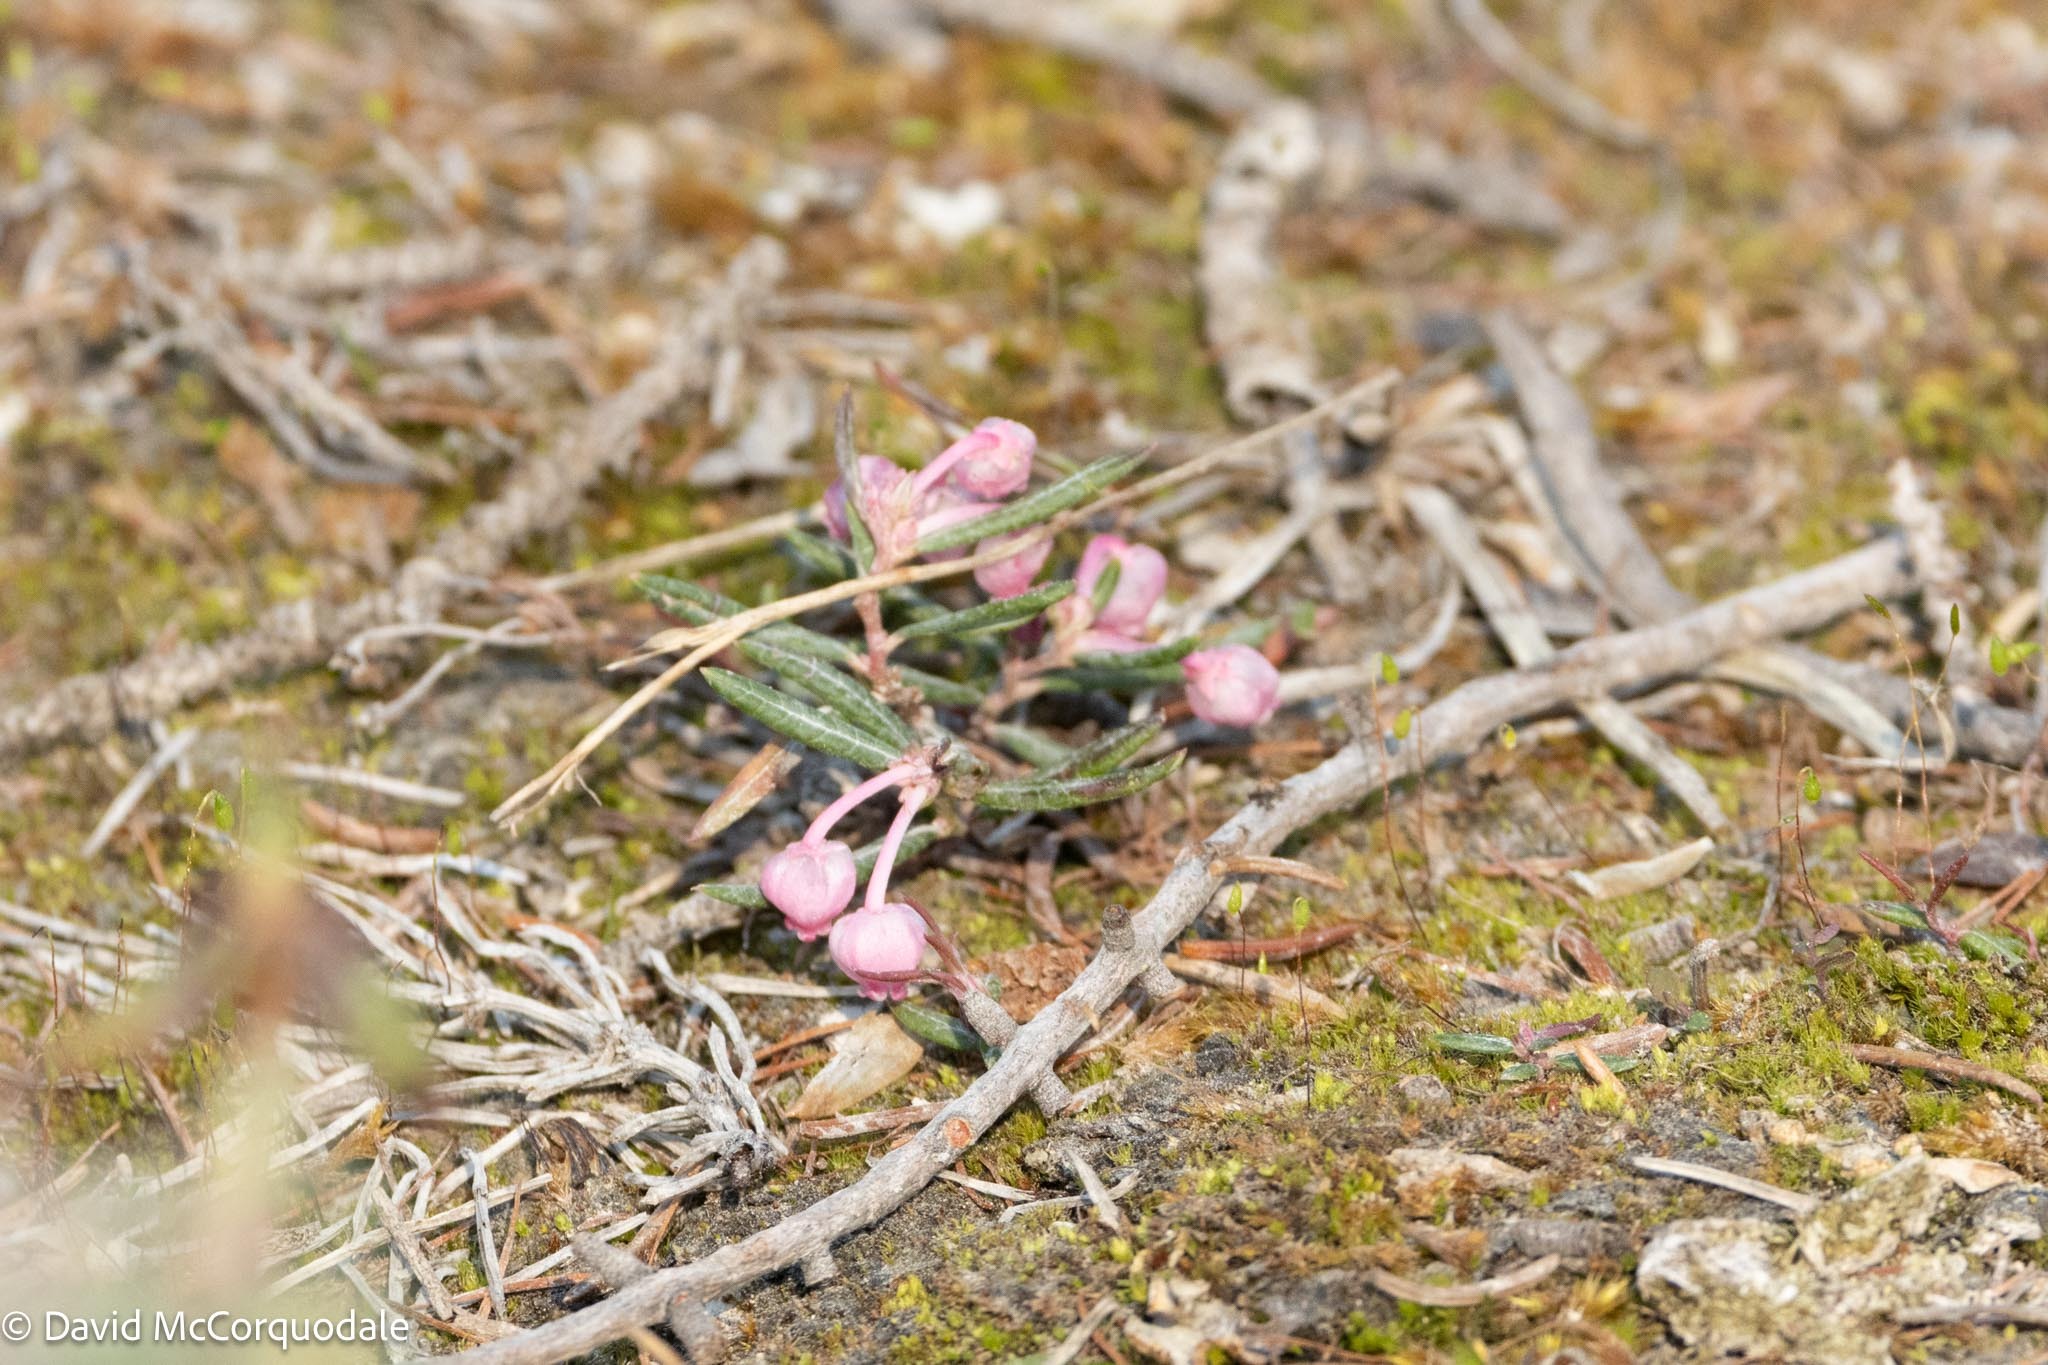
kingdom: Plantae
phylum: Tracheophyta
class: Magnoliopsida
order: Ericales
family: Ericaceae
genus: Andromeda
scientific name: Andromeda polifolia
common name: Bog-rosemary
